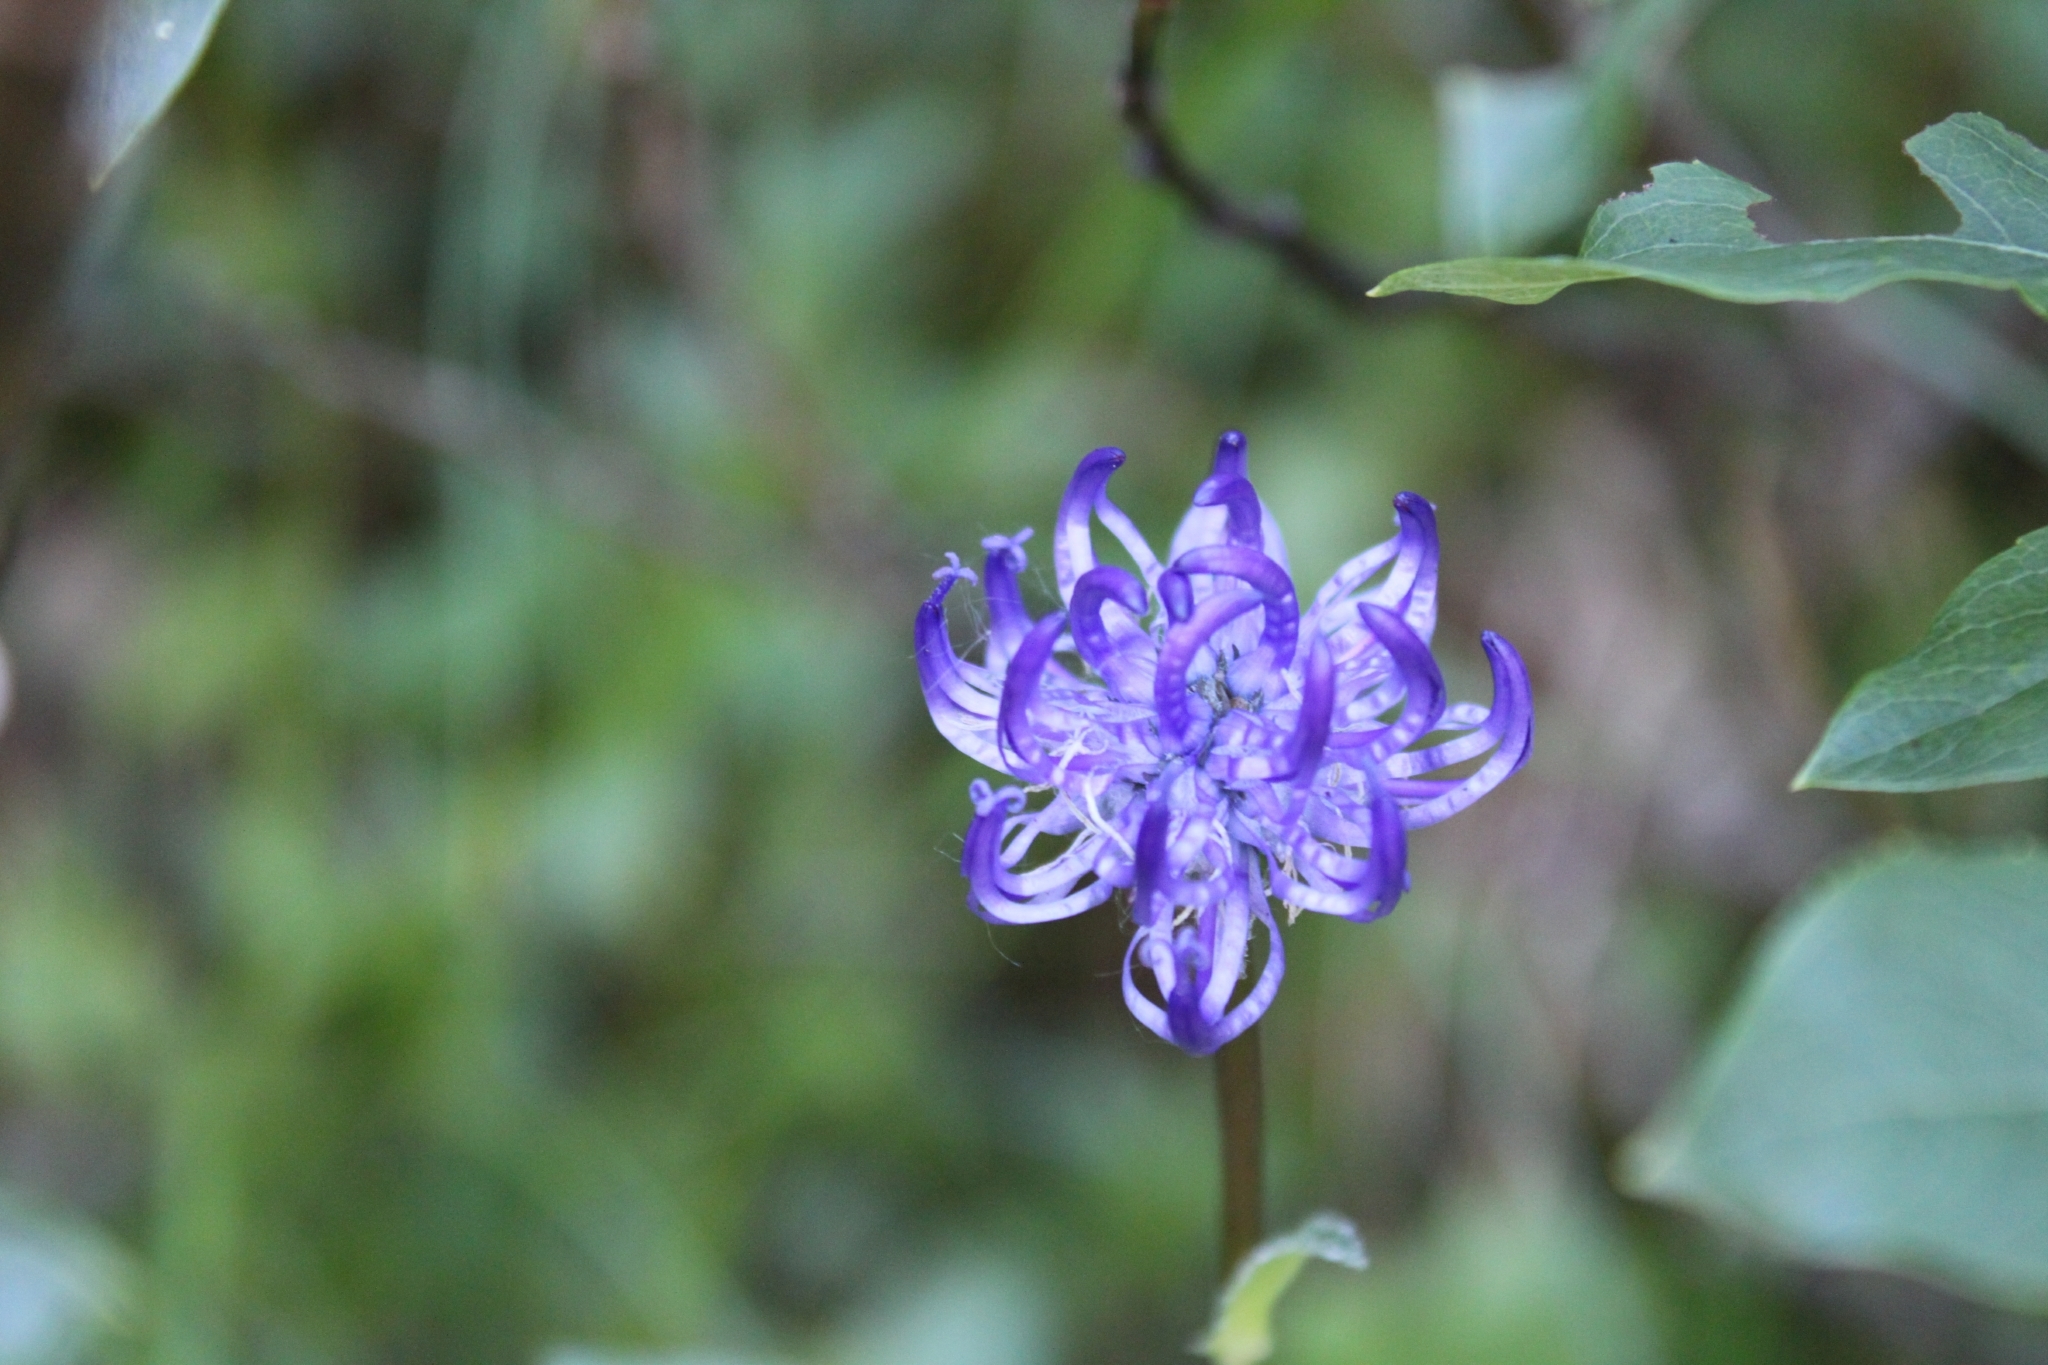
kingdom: Plantae
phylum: Tracheophyta
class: Magnoliopsida
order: Asterales
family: Campanulaceae
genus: Phyteuma
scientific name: Phyteuma orbiculare
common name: Round-headed rampion
